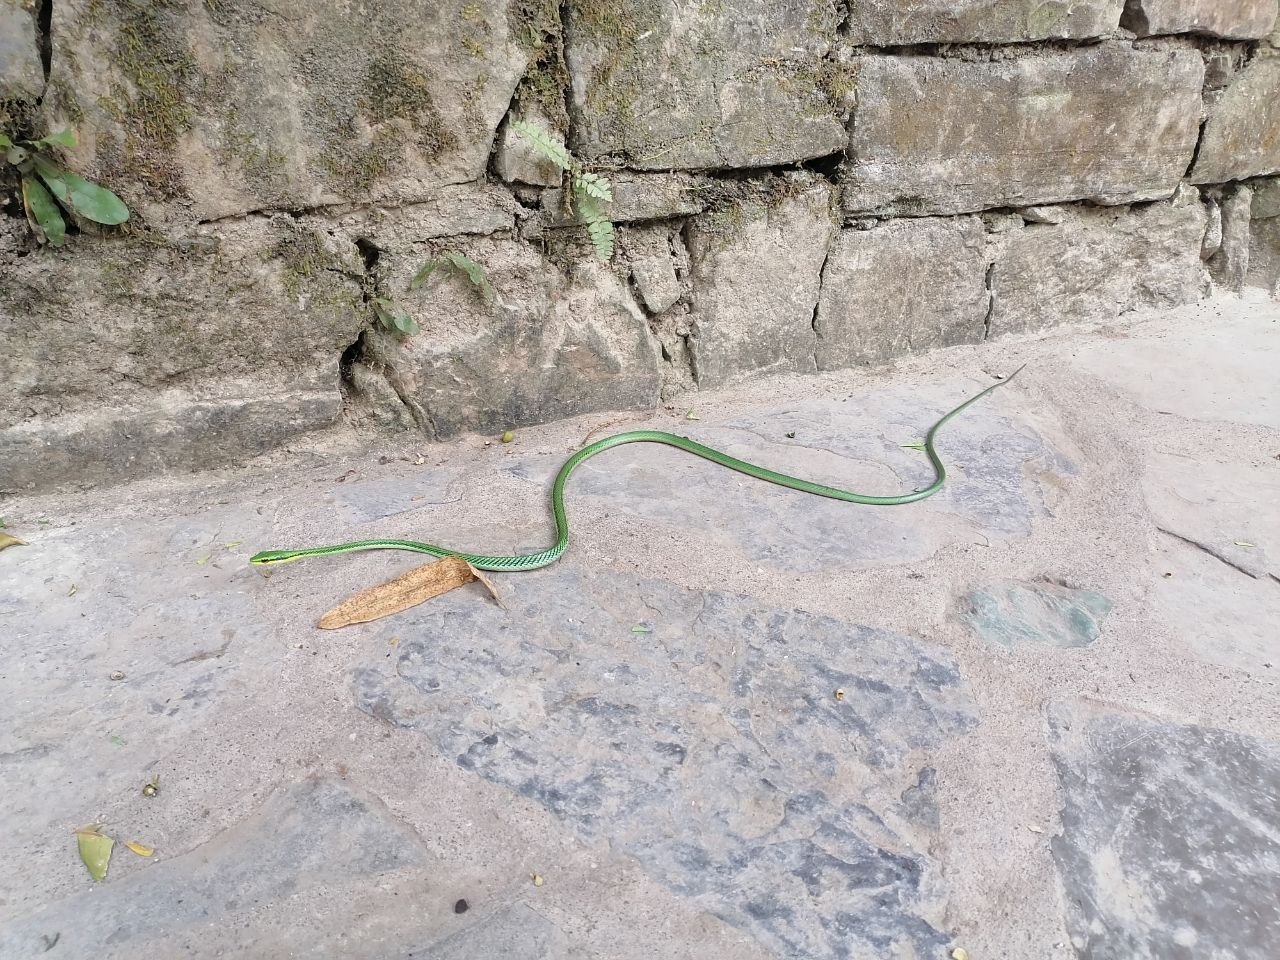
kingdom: Animalia
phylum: Chordata
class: Squamata
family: Colubridae
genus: Leptophis
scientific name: Leptophis mexicanus
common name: Mexican parrot snake
